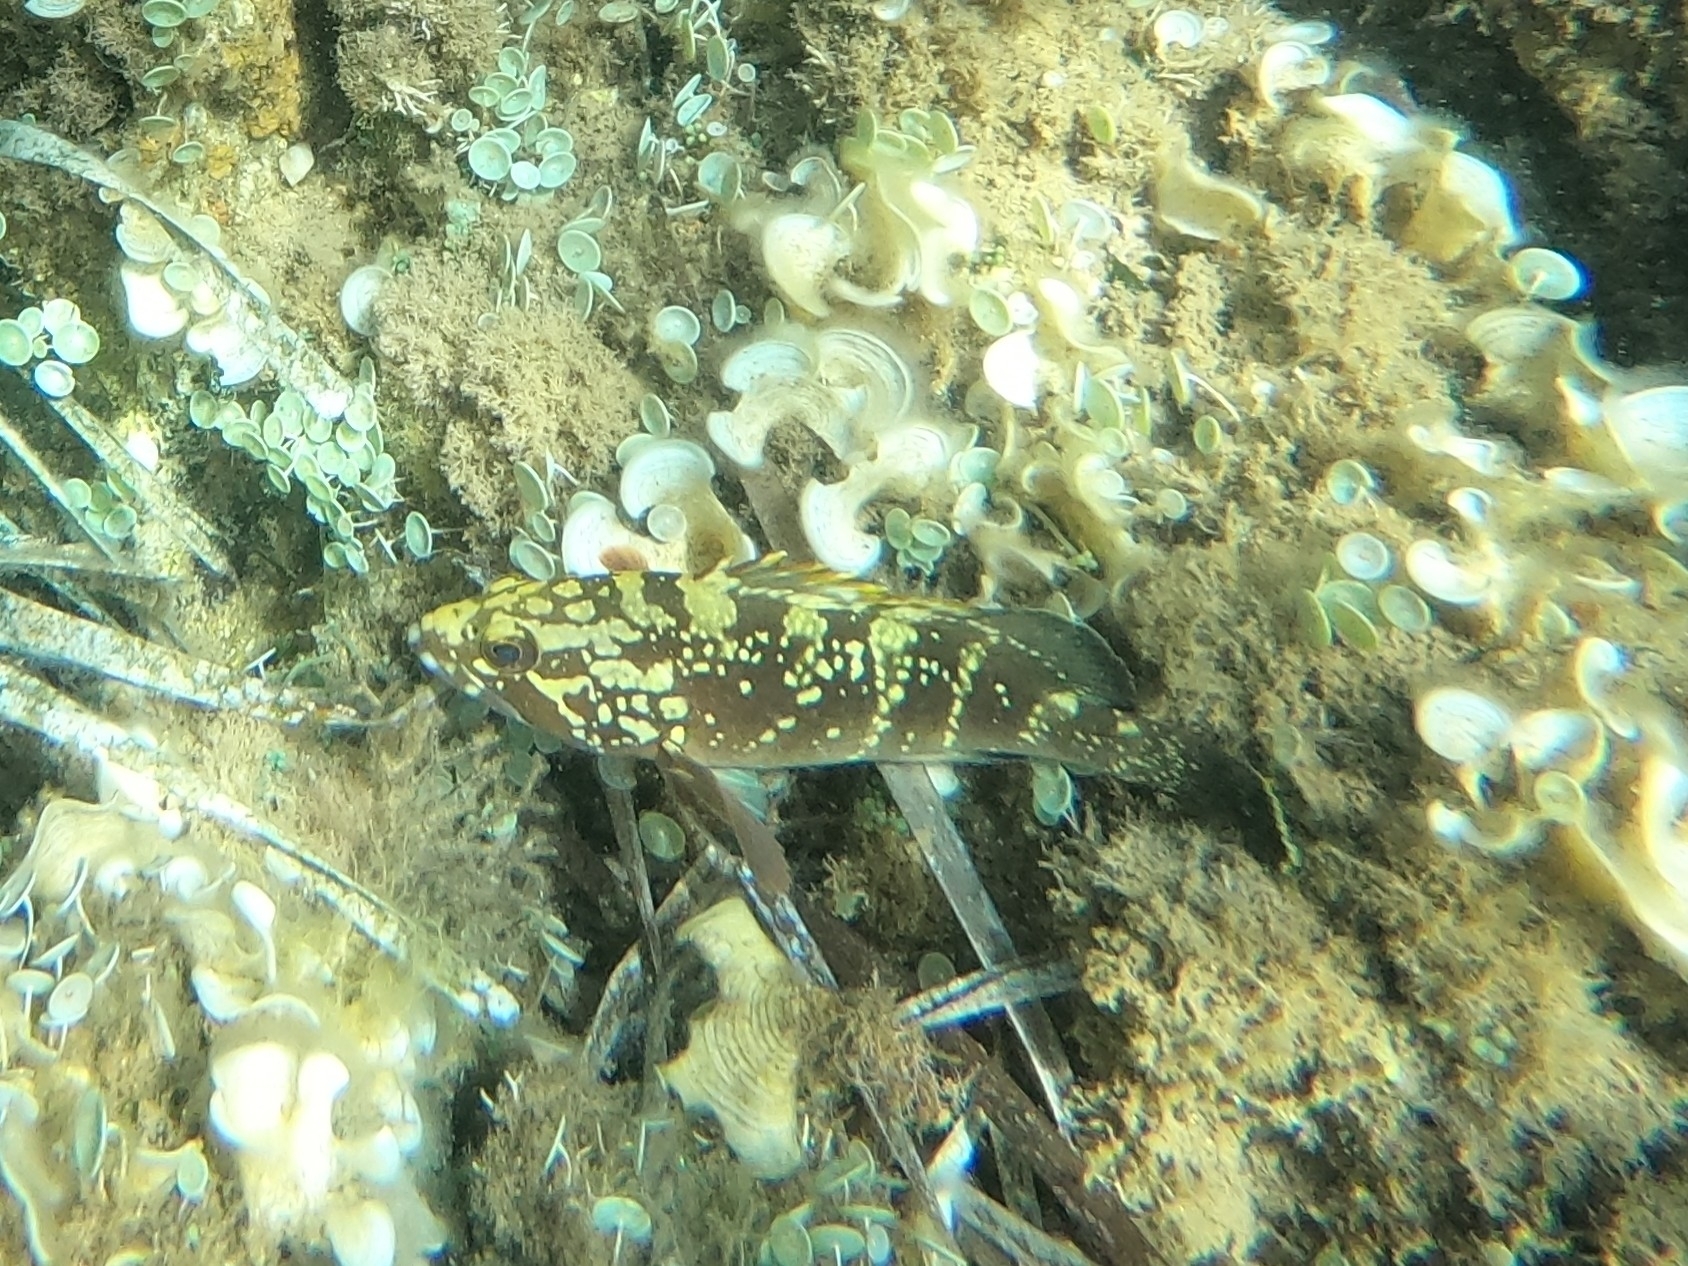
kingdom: Animalia
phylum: Chordata
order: Perciformes
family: Serranidae
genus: Epinephelus
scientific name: Epinephelus marginatus
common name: Dusky grouper
